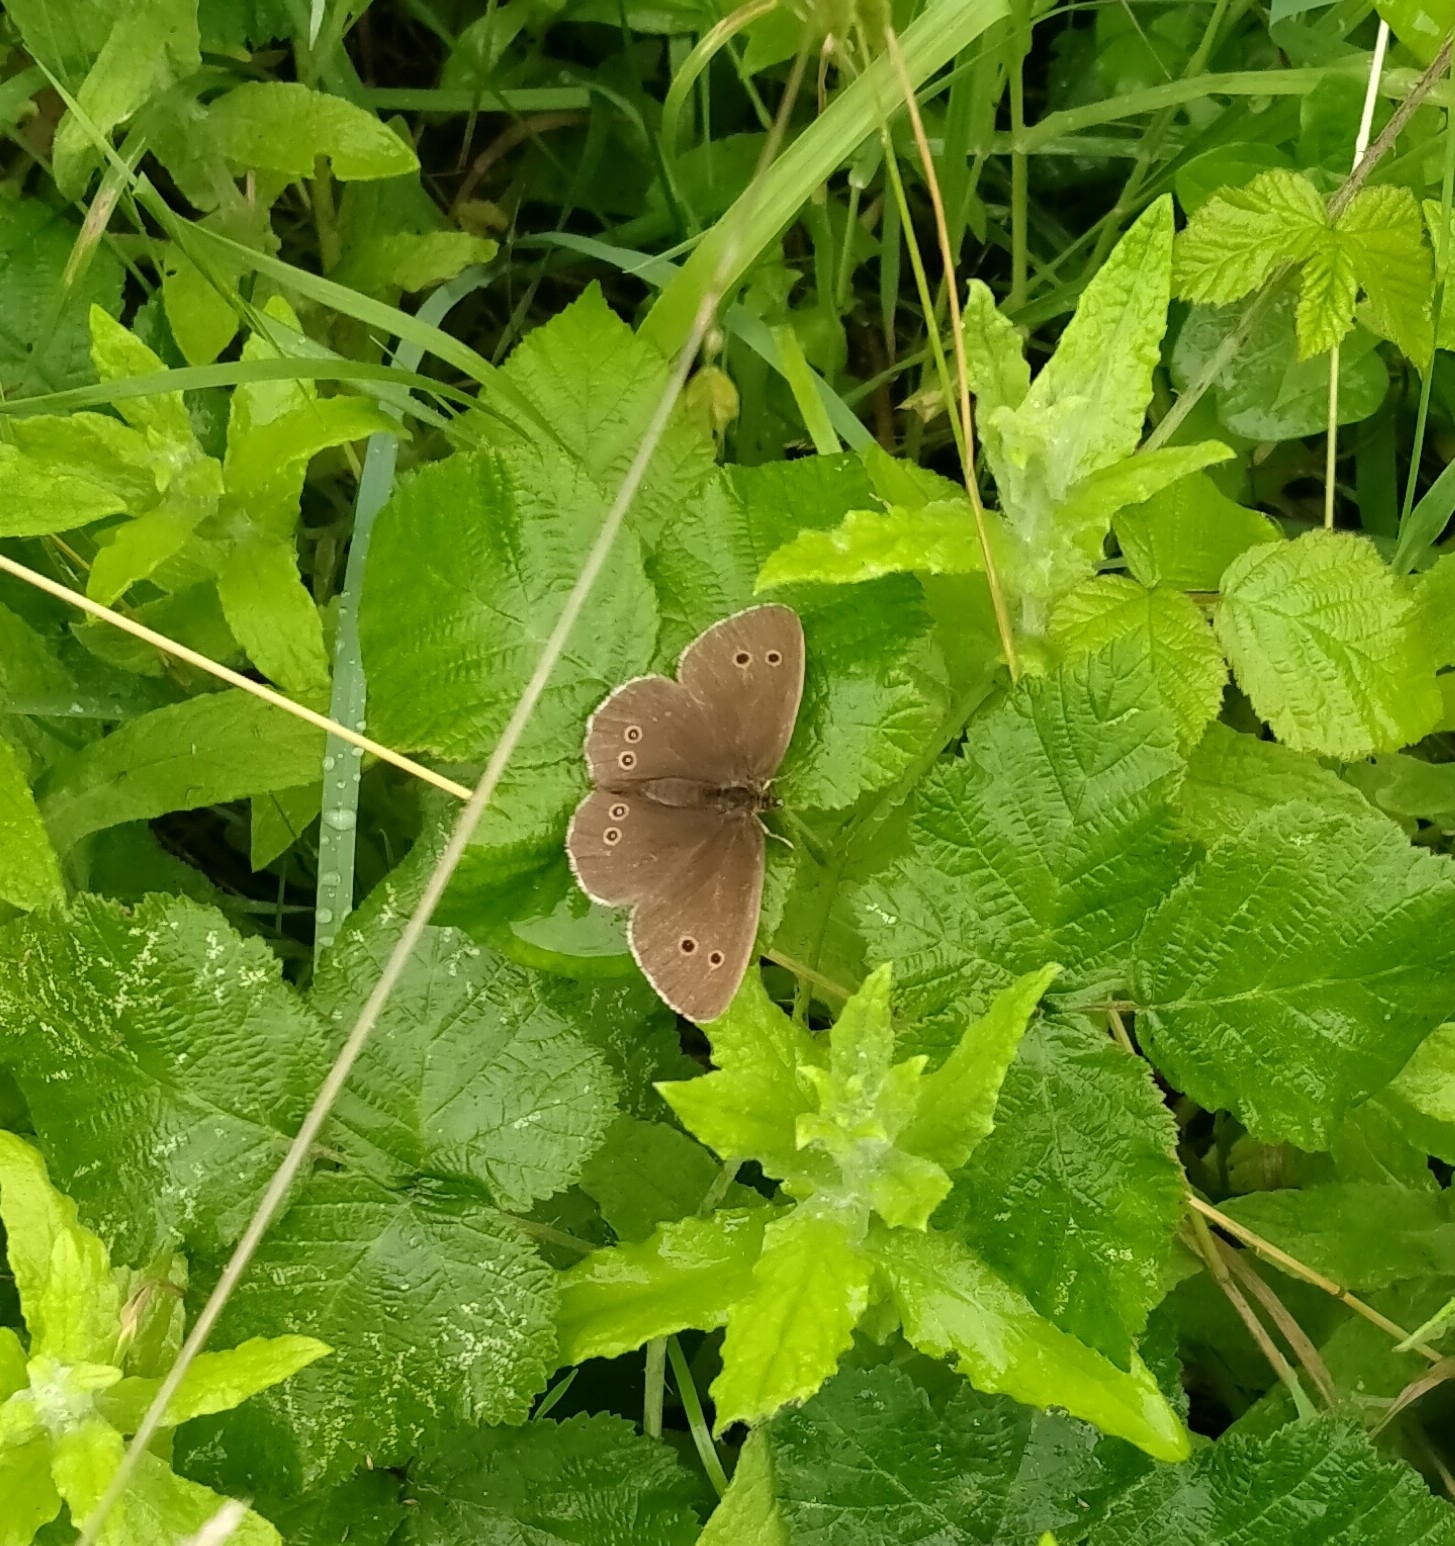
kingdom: Animalia
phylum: Arthropoda
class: Insecta
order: Lepidoptera
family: Nymphalidae
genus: Aphantopus
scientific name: Aphantopus hyperantus
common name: Ringlet
